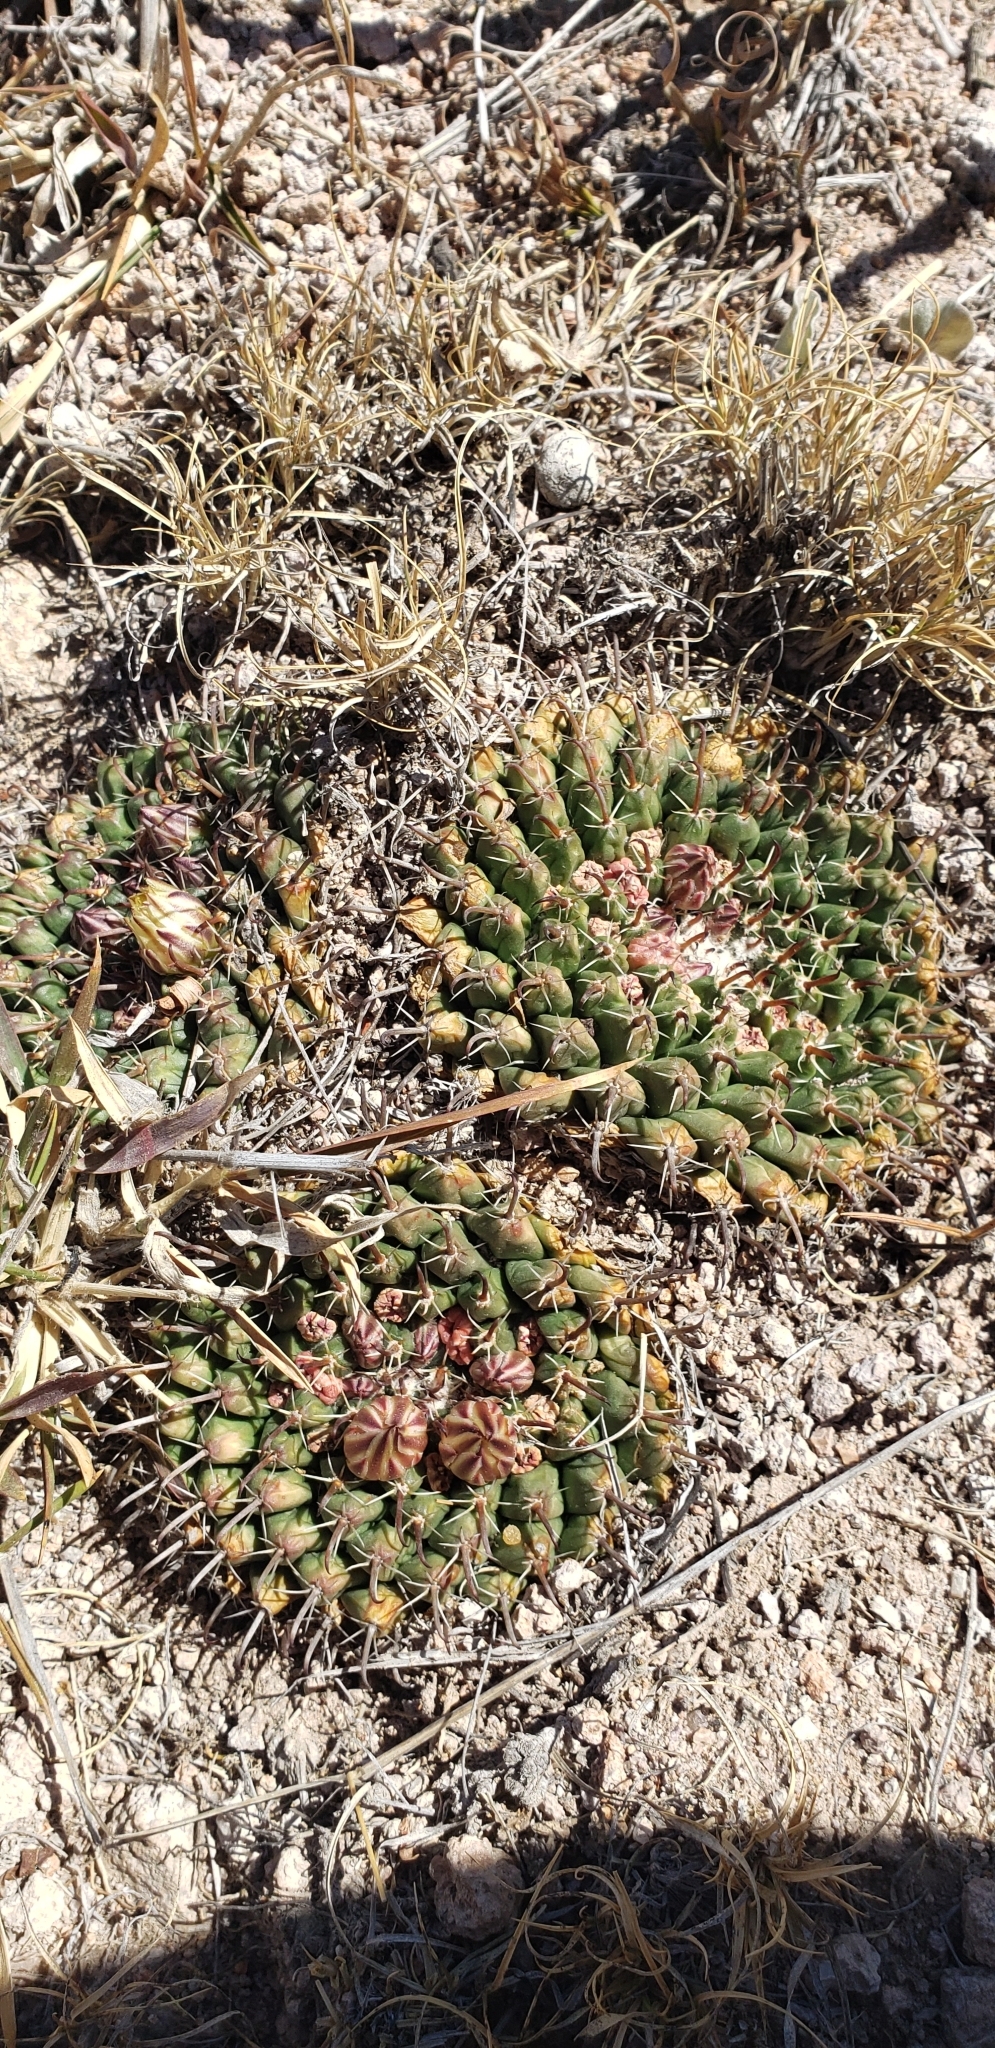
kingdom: Plantae
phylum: Tracheophyta
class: Magnoliopsida
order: Caryophyllales
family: Cactaceae
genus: Mammillaria
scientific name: Mammillaria uncinata
